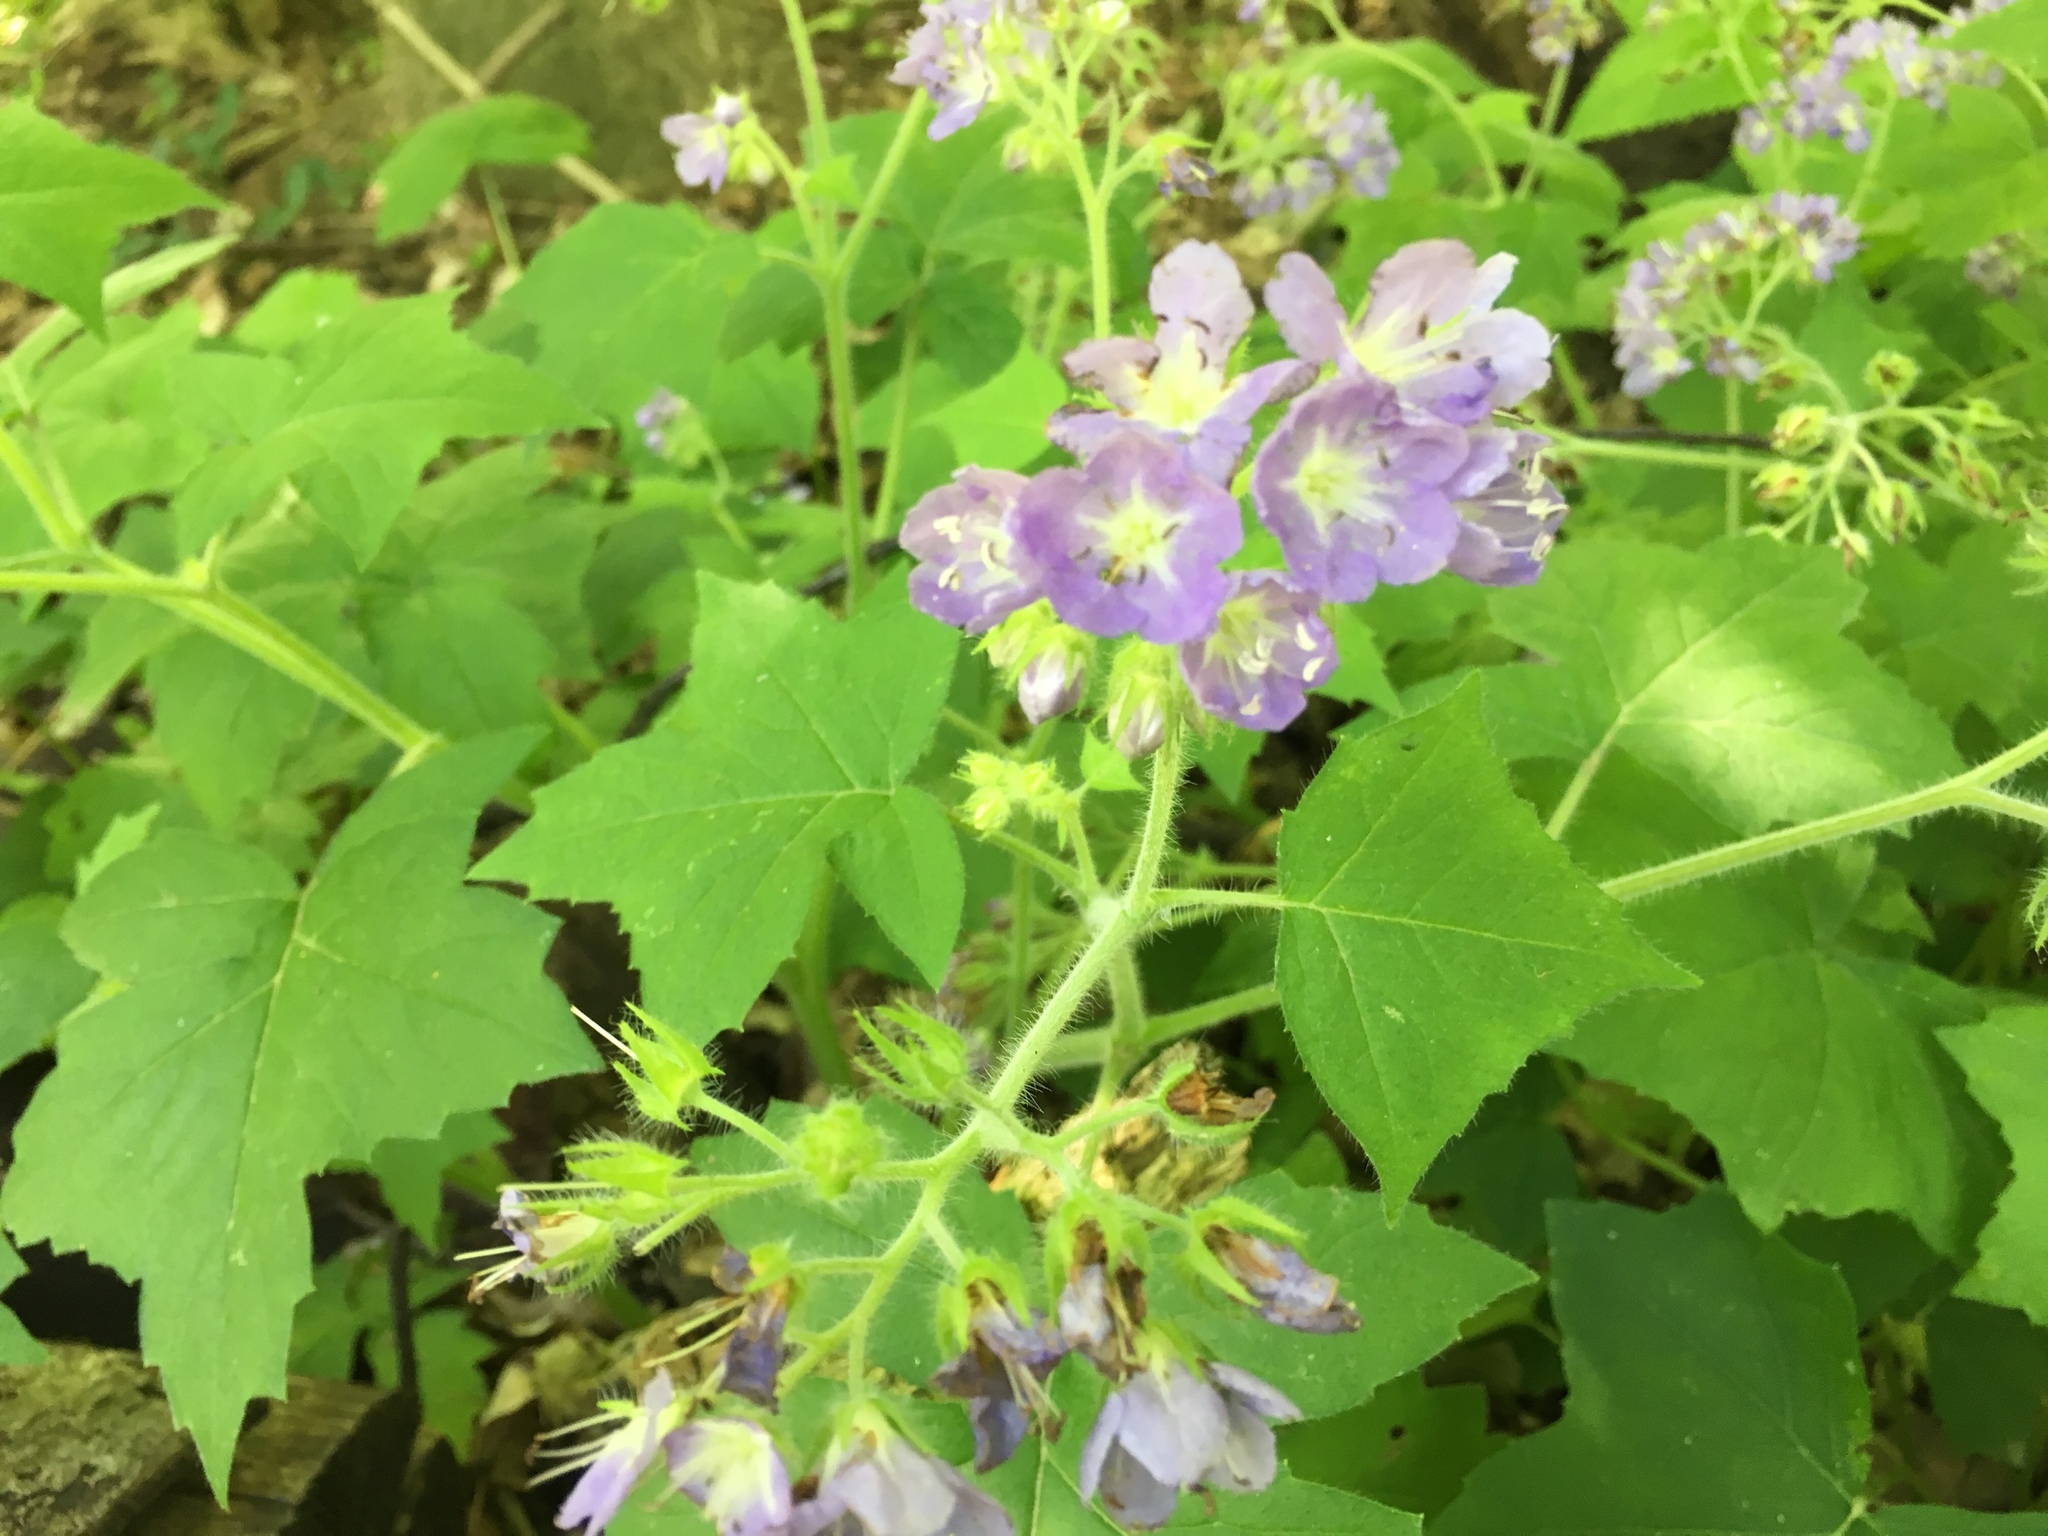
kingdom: Plantae
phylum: Tracheophyta
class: Magnoliopsida
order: Boraginales
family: Hydrophyllaceae
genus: Hydrophyllum
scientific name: Hydrophyllum appendiculatum
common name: Appendaged waterleaf
